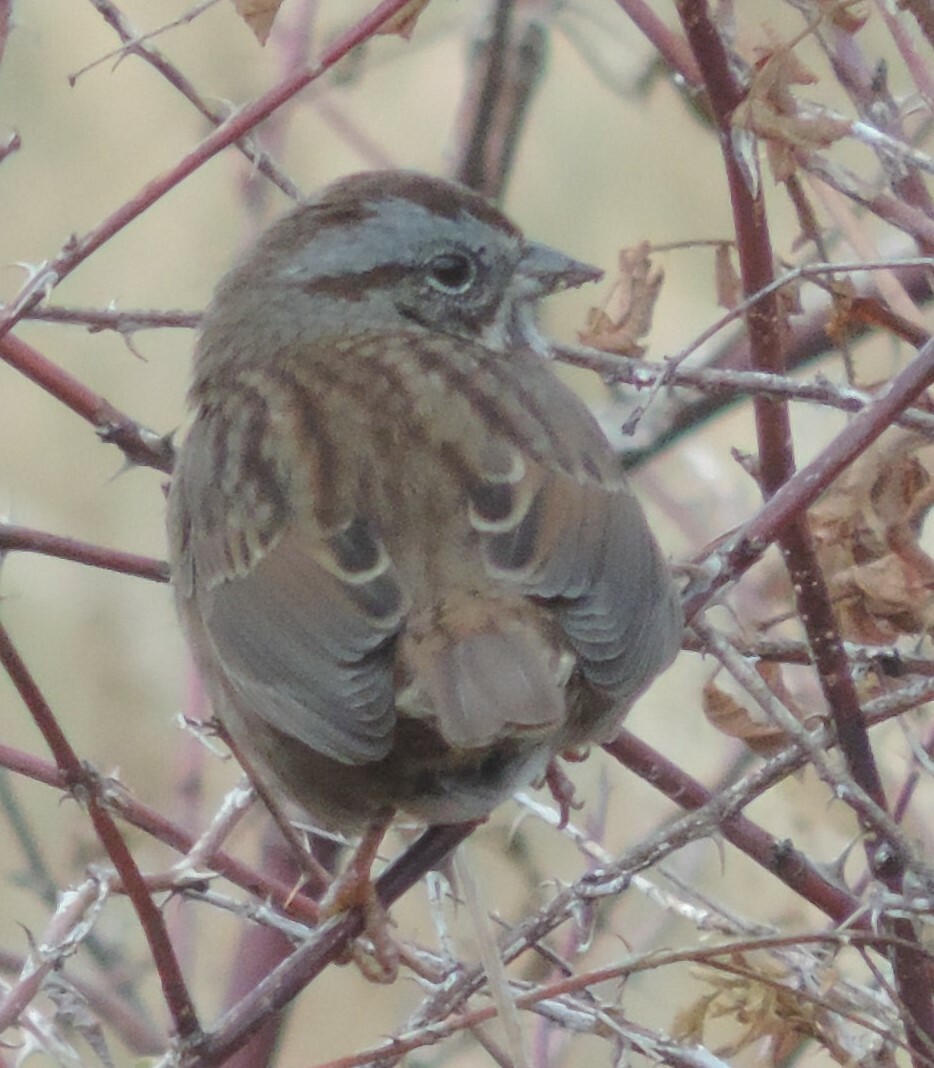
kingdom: Animalia
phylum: Chordata
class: Aves
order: Passeriformes
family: Passerellidae
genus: Melospiza
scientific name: Melospiza melodia
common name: Song sparrow
